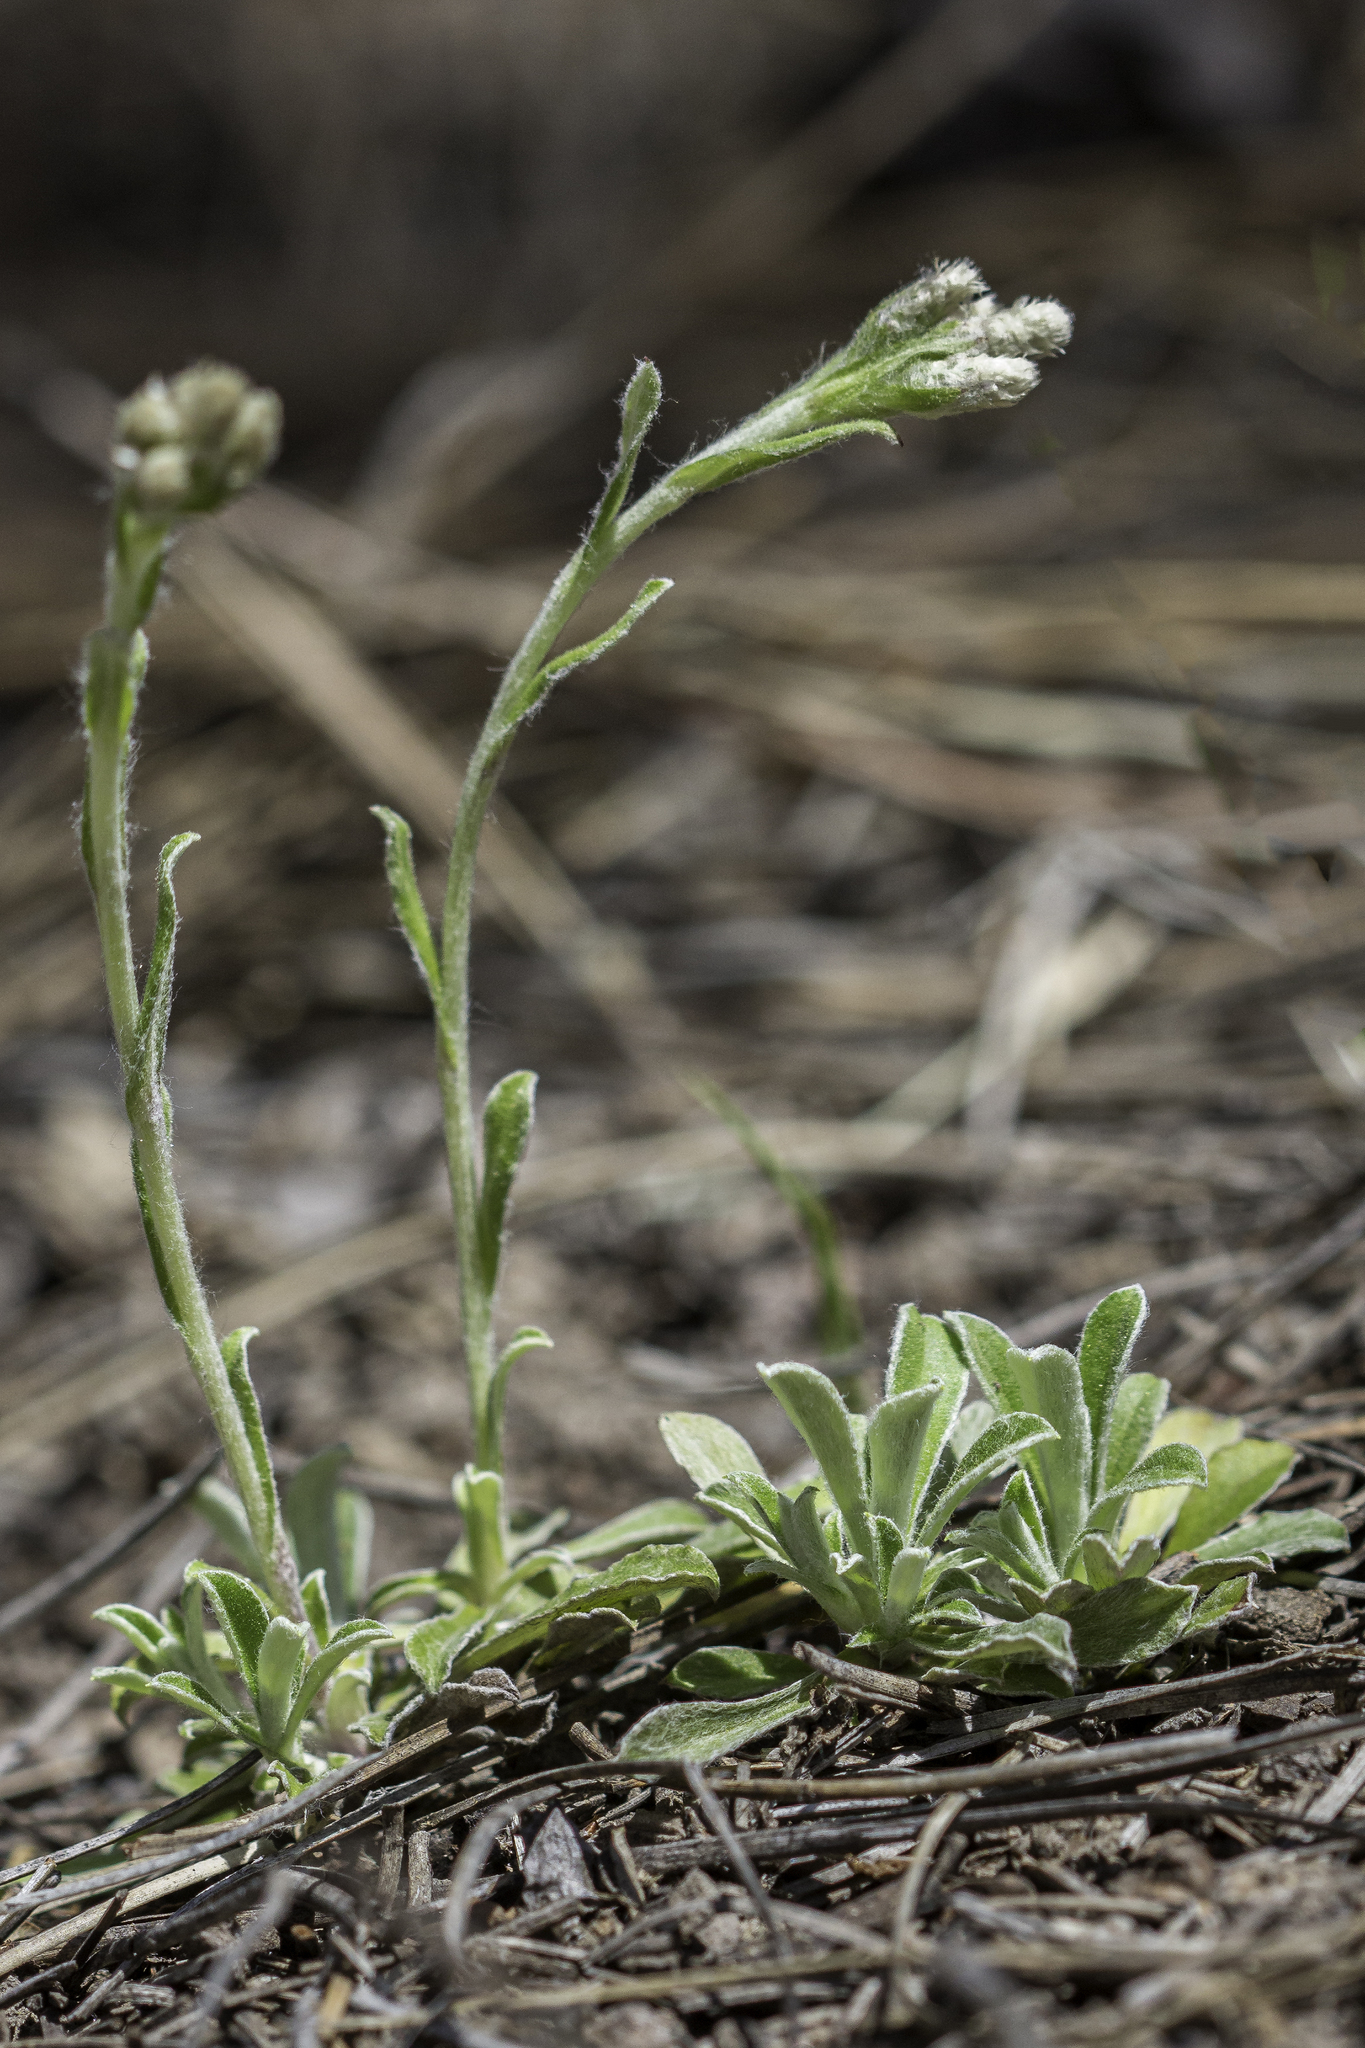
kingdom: Plantae
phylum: Tracheophyta
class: Magnoliopsida
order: Asterales
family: Asteraceae
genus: Antennaria
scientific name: Antennaria marginata
